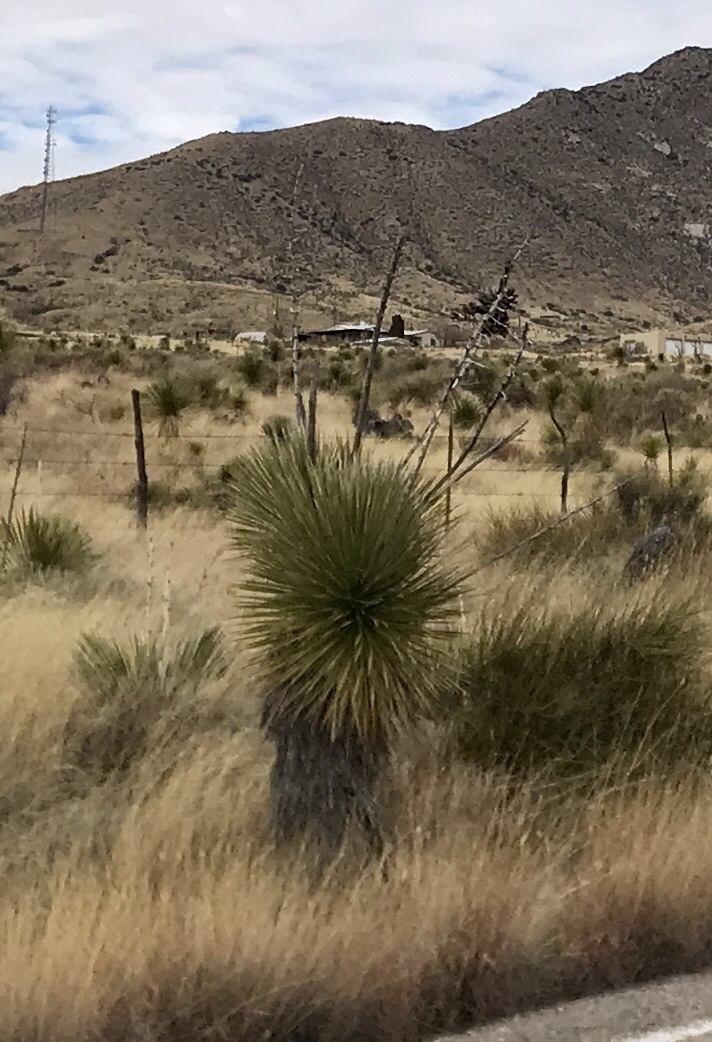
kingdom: Plantae
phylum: Tracheophyta
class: Liliopsida
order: Asparagales
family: Asparagaceae
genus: Yucca
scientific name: Yucca elata
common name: Palmella
